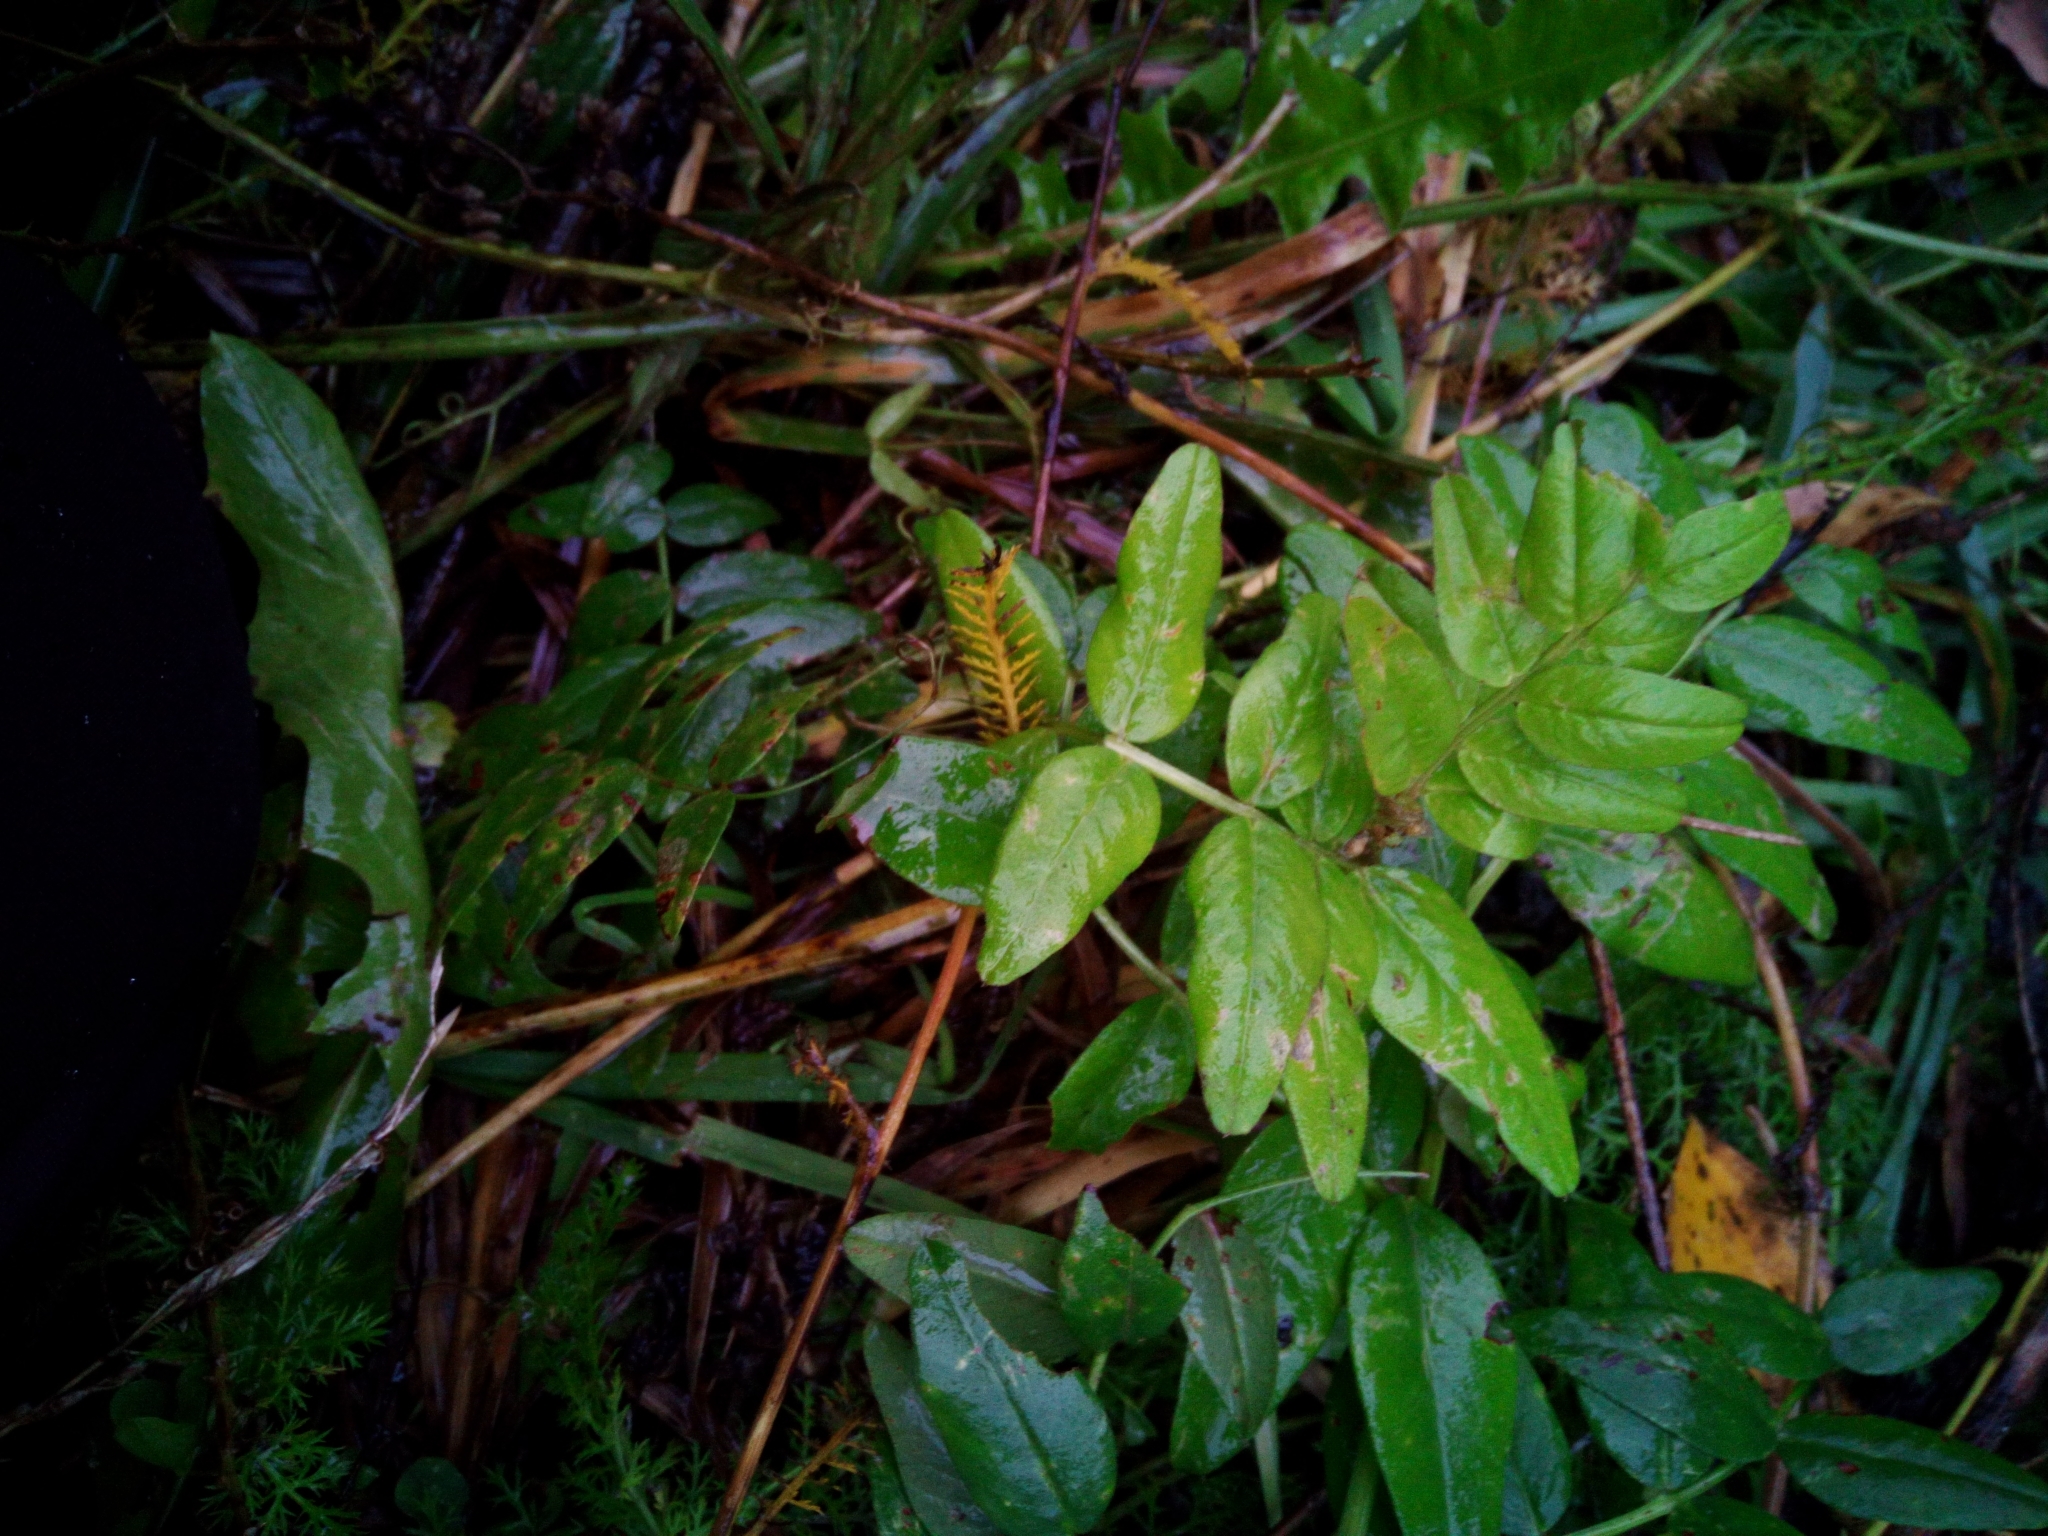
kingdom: Plantae
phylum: Tracheophyta
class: Magnoliopsida
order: Fabales
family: Fabaceae
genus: Vicia
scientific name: Vicia sepium
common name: Bush vetch
